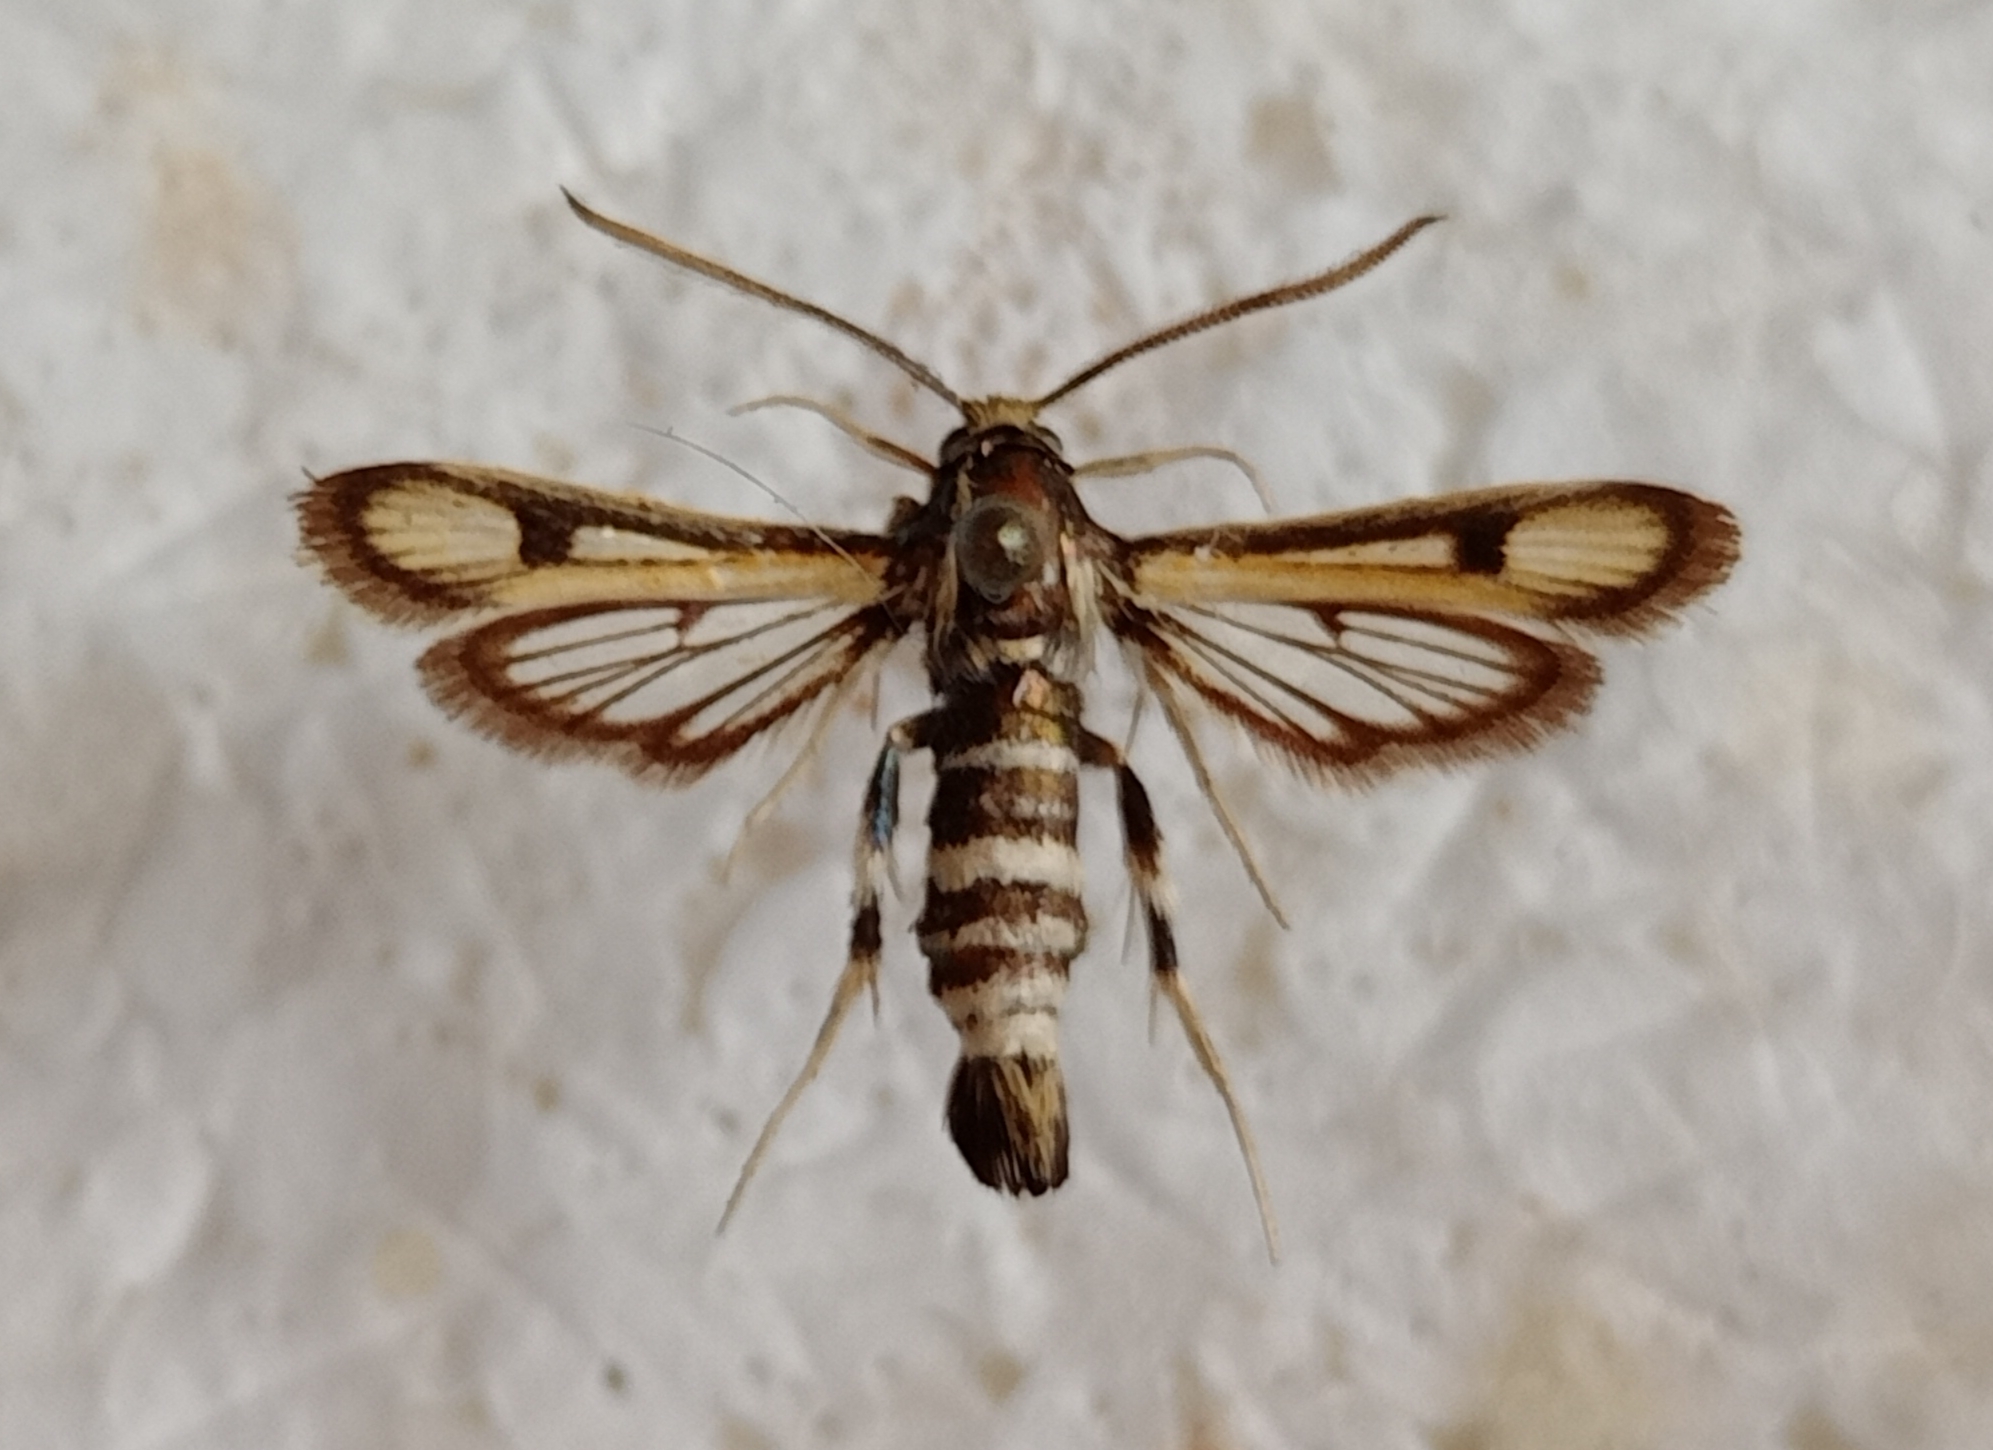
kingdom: Animalia
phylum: Arthropoda
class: Insecta
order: Lepidoptera
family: Sesiidae
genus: Chamaesphecia
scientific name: Chamaesphecia weidenhofferi
